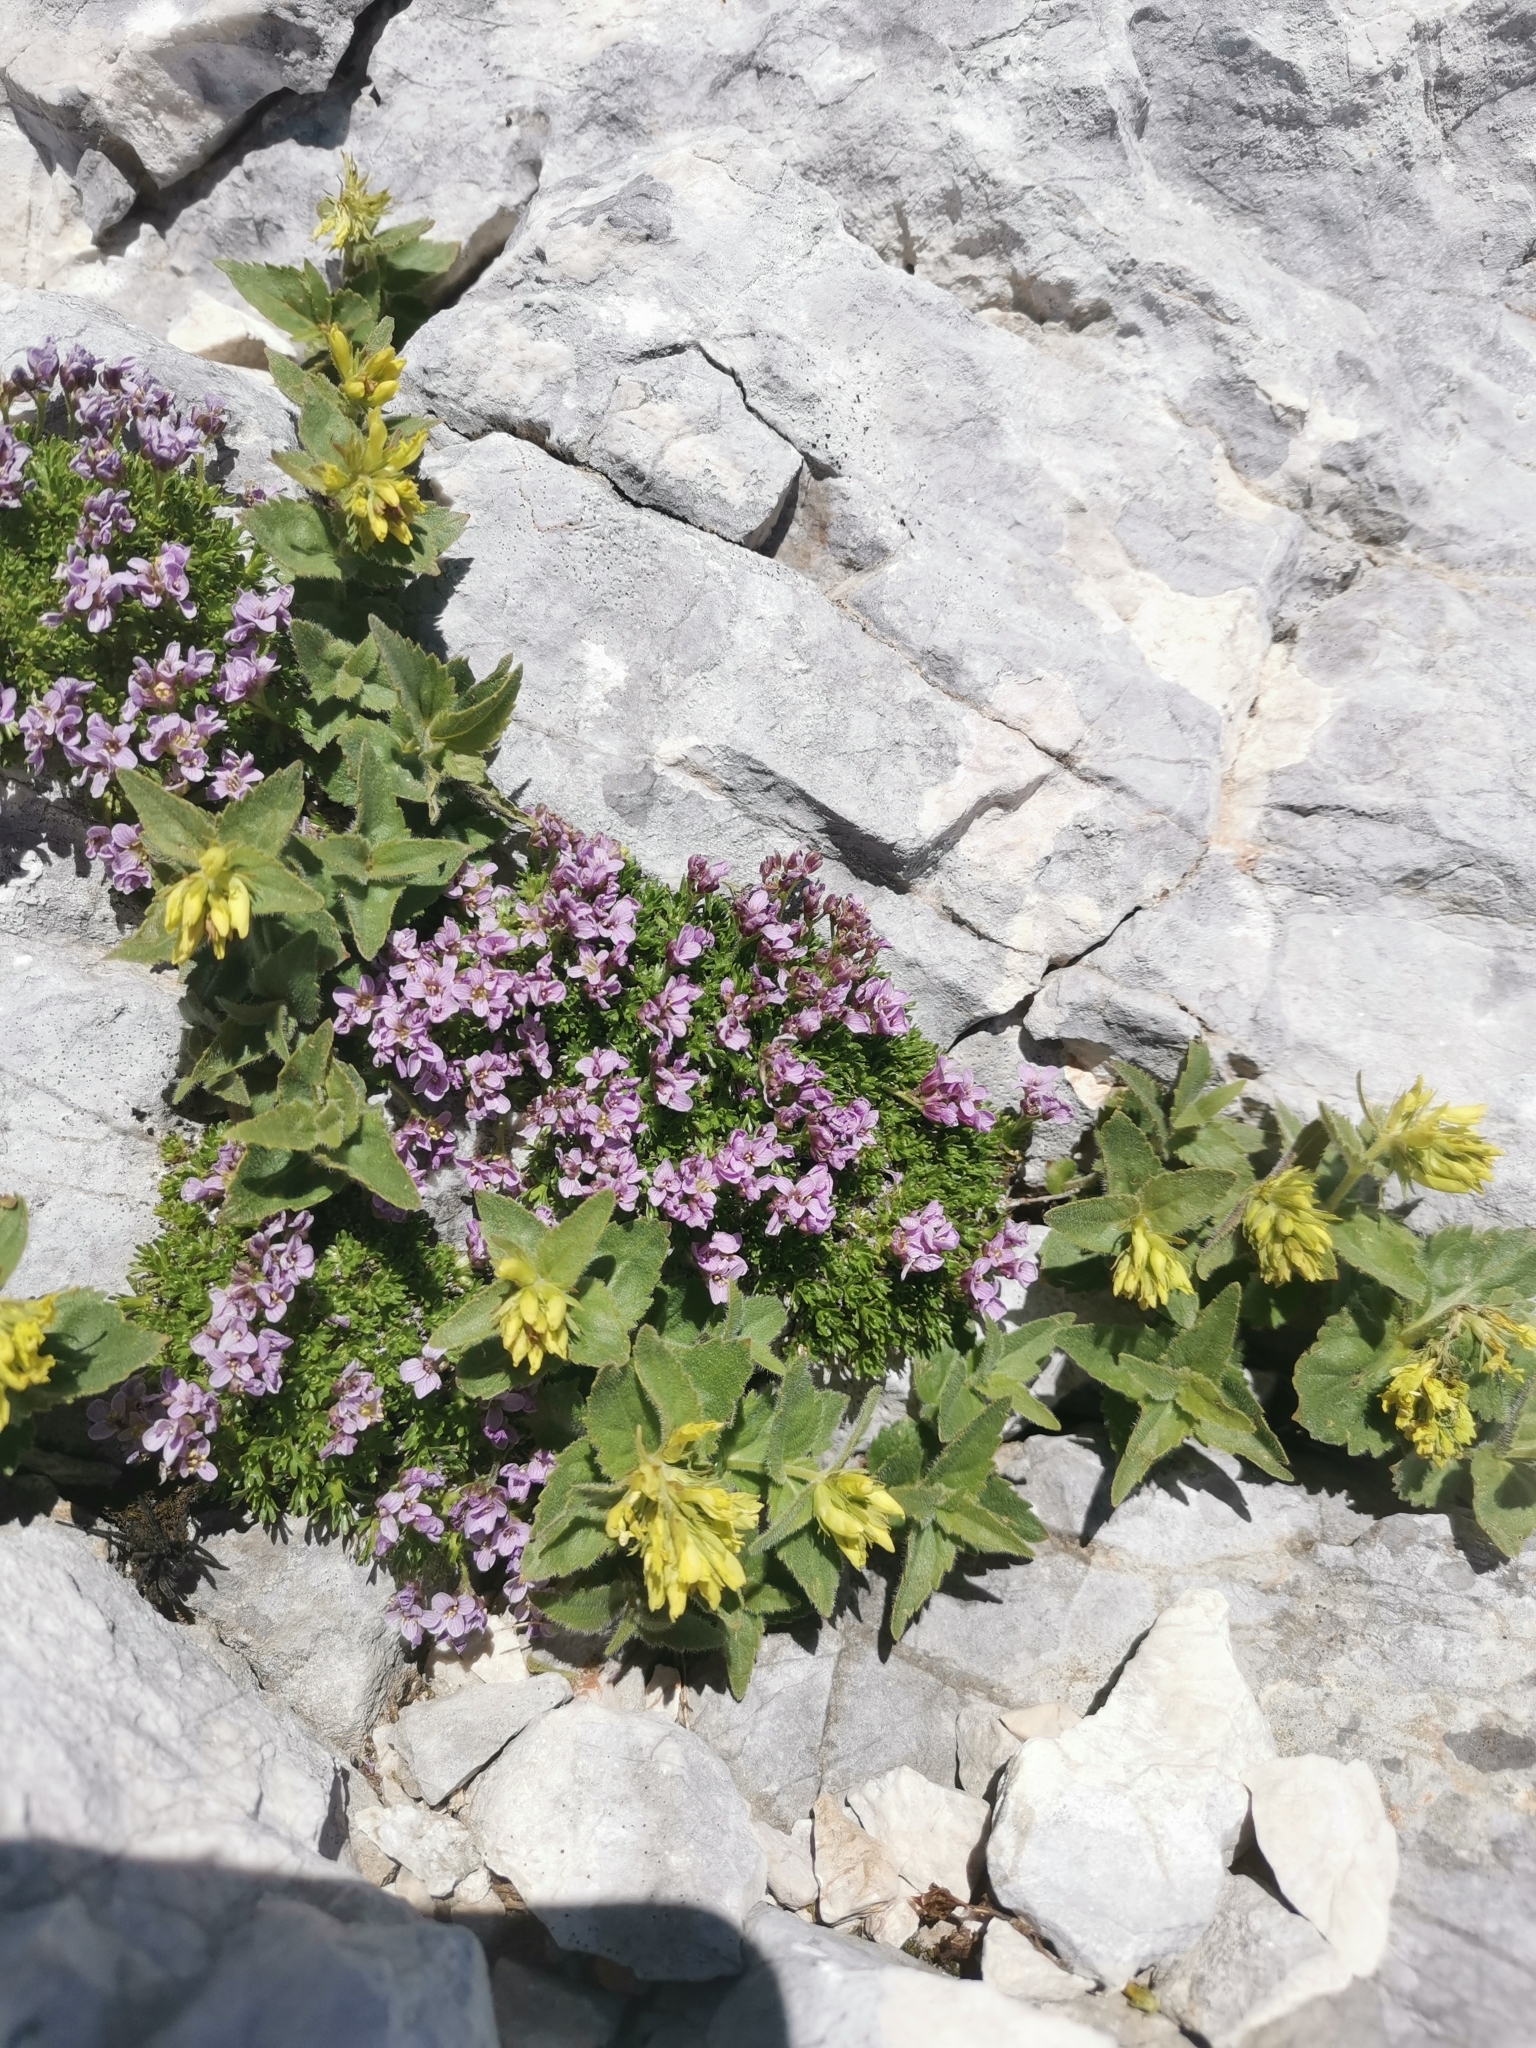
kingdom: Plantae
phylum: Tracheophyta
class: Magnoliopsida
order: Brassicales
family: Brassicaceae
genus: Petrocallis
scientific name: Petrocallis pyrenaica
